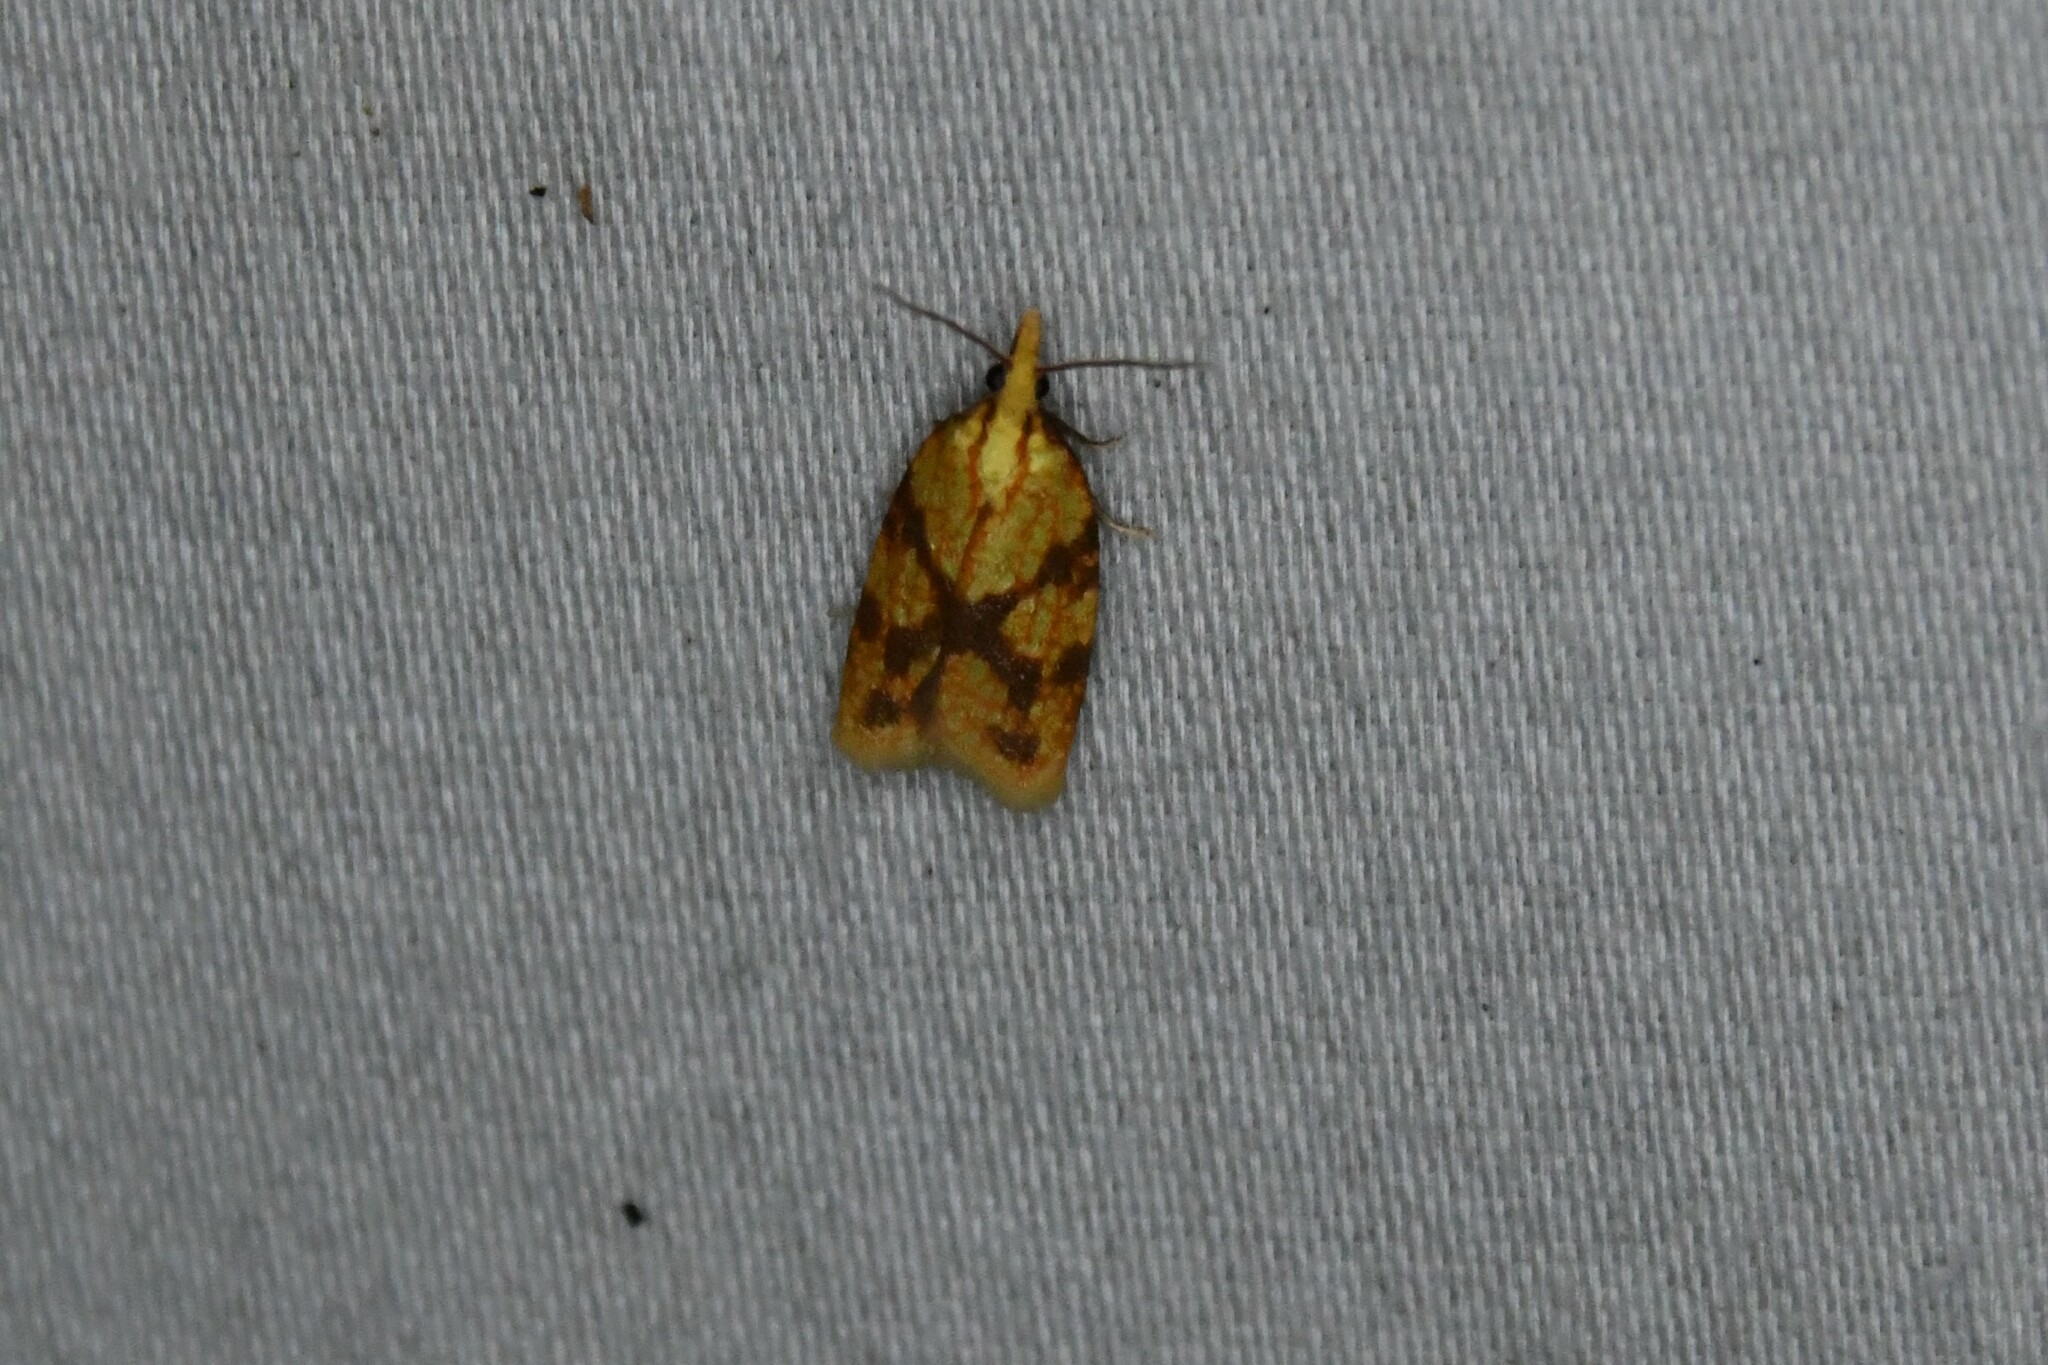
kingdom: Animalia
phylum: Arthropoda
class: Insecta
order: Lepidoptera
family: Tortricidae
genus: Sparganothis
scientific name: Sparganothis sulfureana
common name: Sparganothis fruitworm moth
